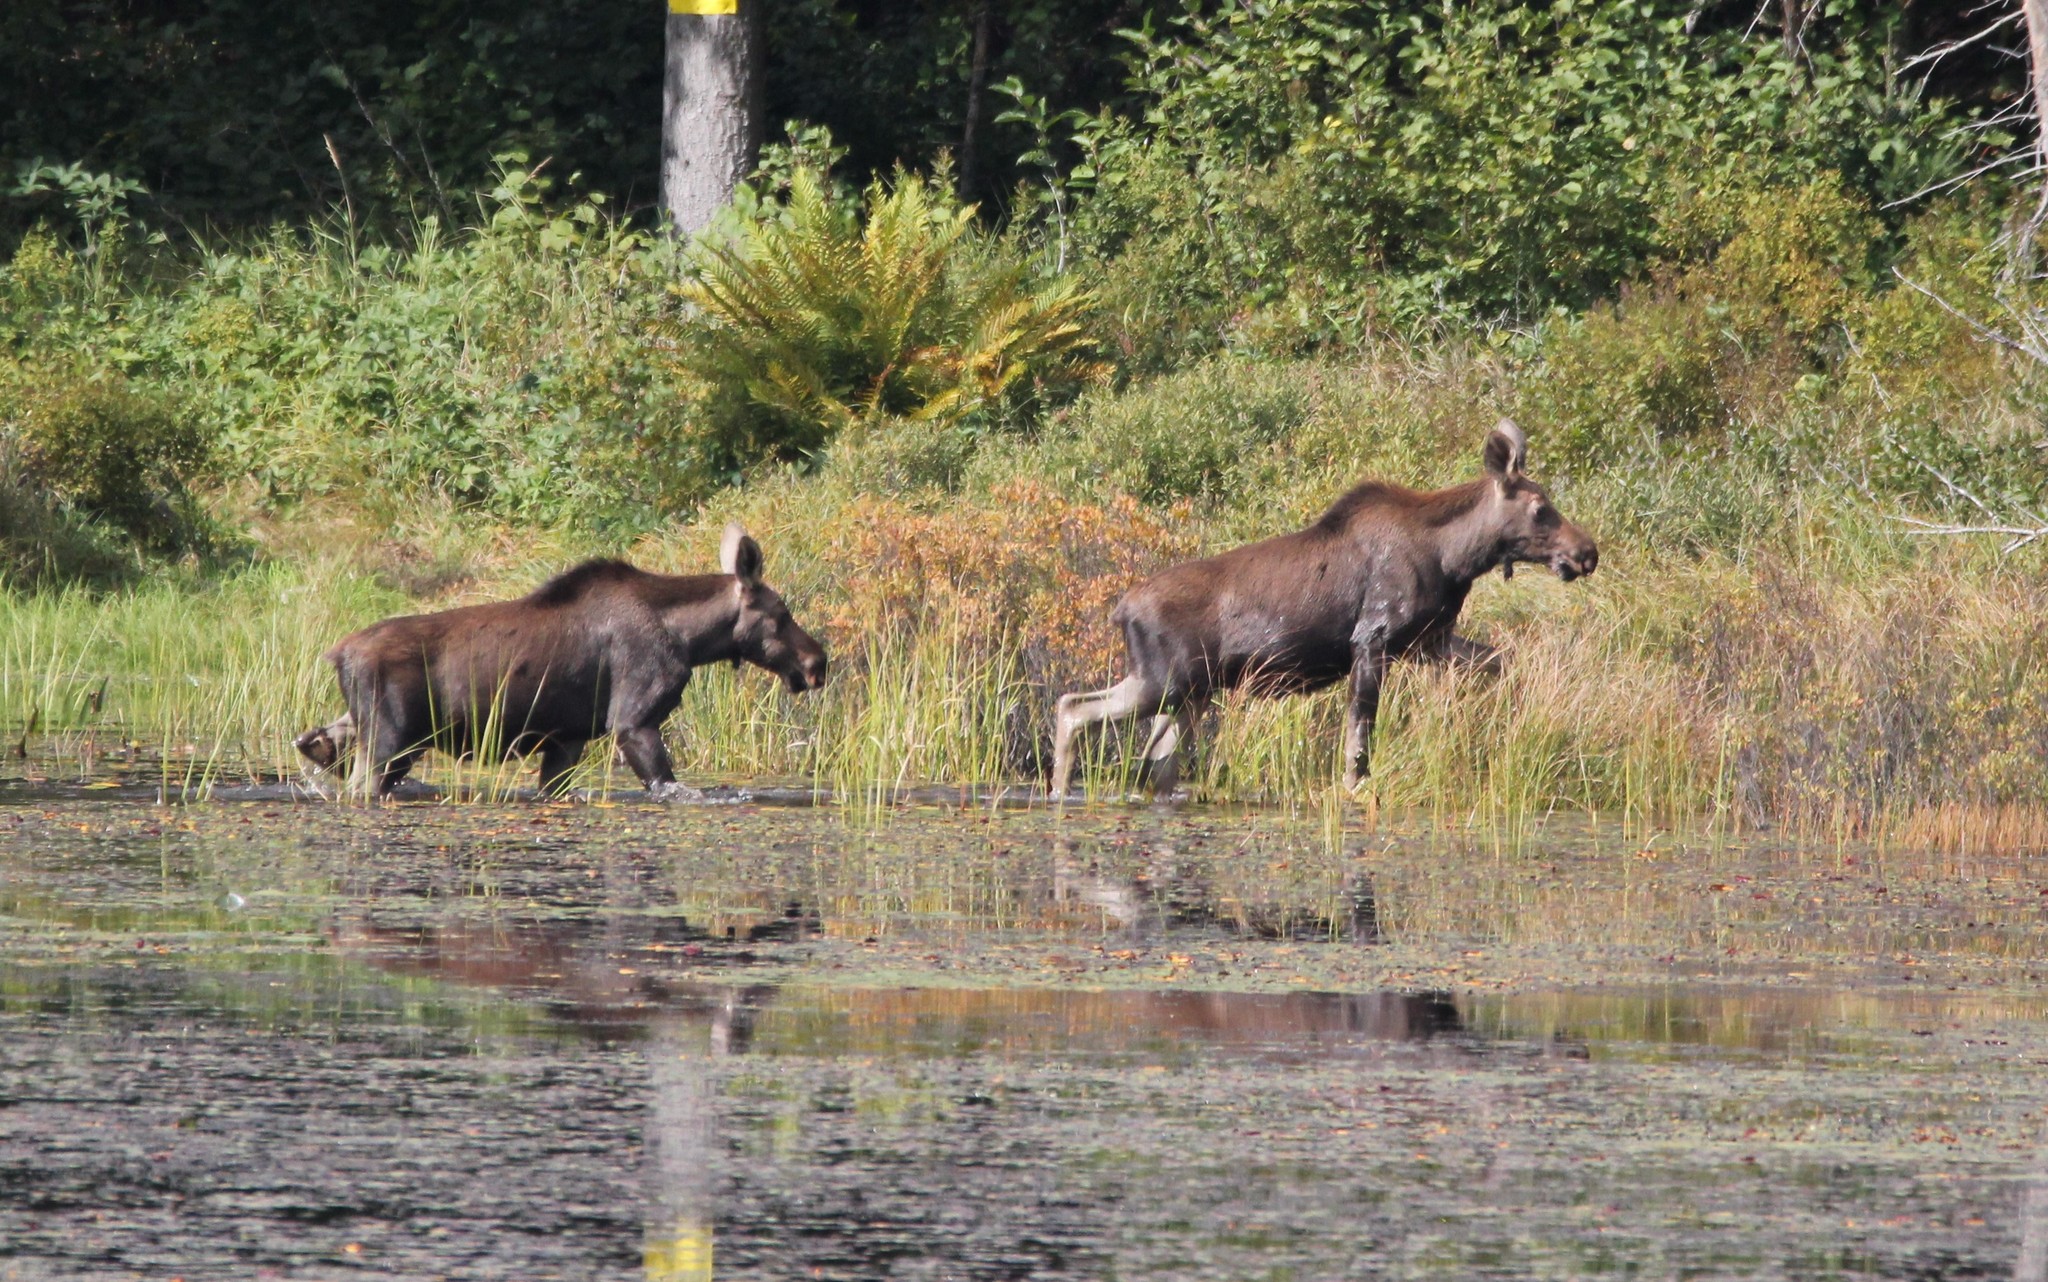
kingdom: Animalia
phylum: Chordata
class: Mammalia
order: Artiodactyla
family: Cervidae
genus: Alces
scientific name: Alces alces
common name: Moose
